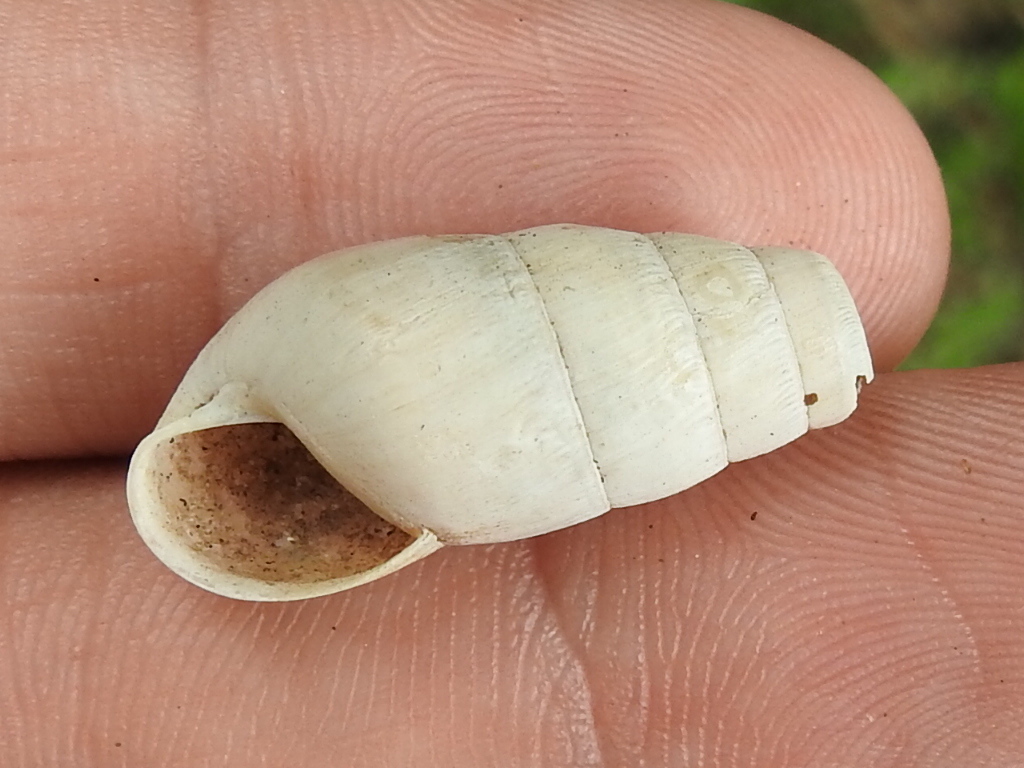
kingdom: Animalia
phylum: Mollusca
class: Gastropoda
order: Stylommatophora
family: Achatinidae
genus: Rumina
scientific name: Rumina decollata
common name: Decollate snail
